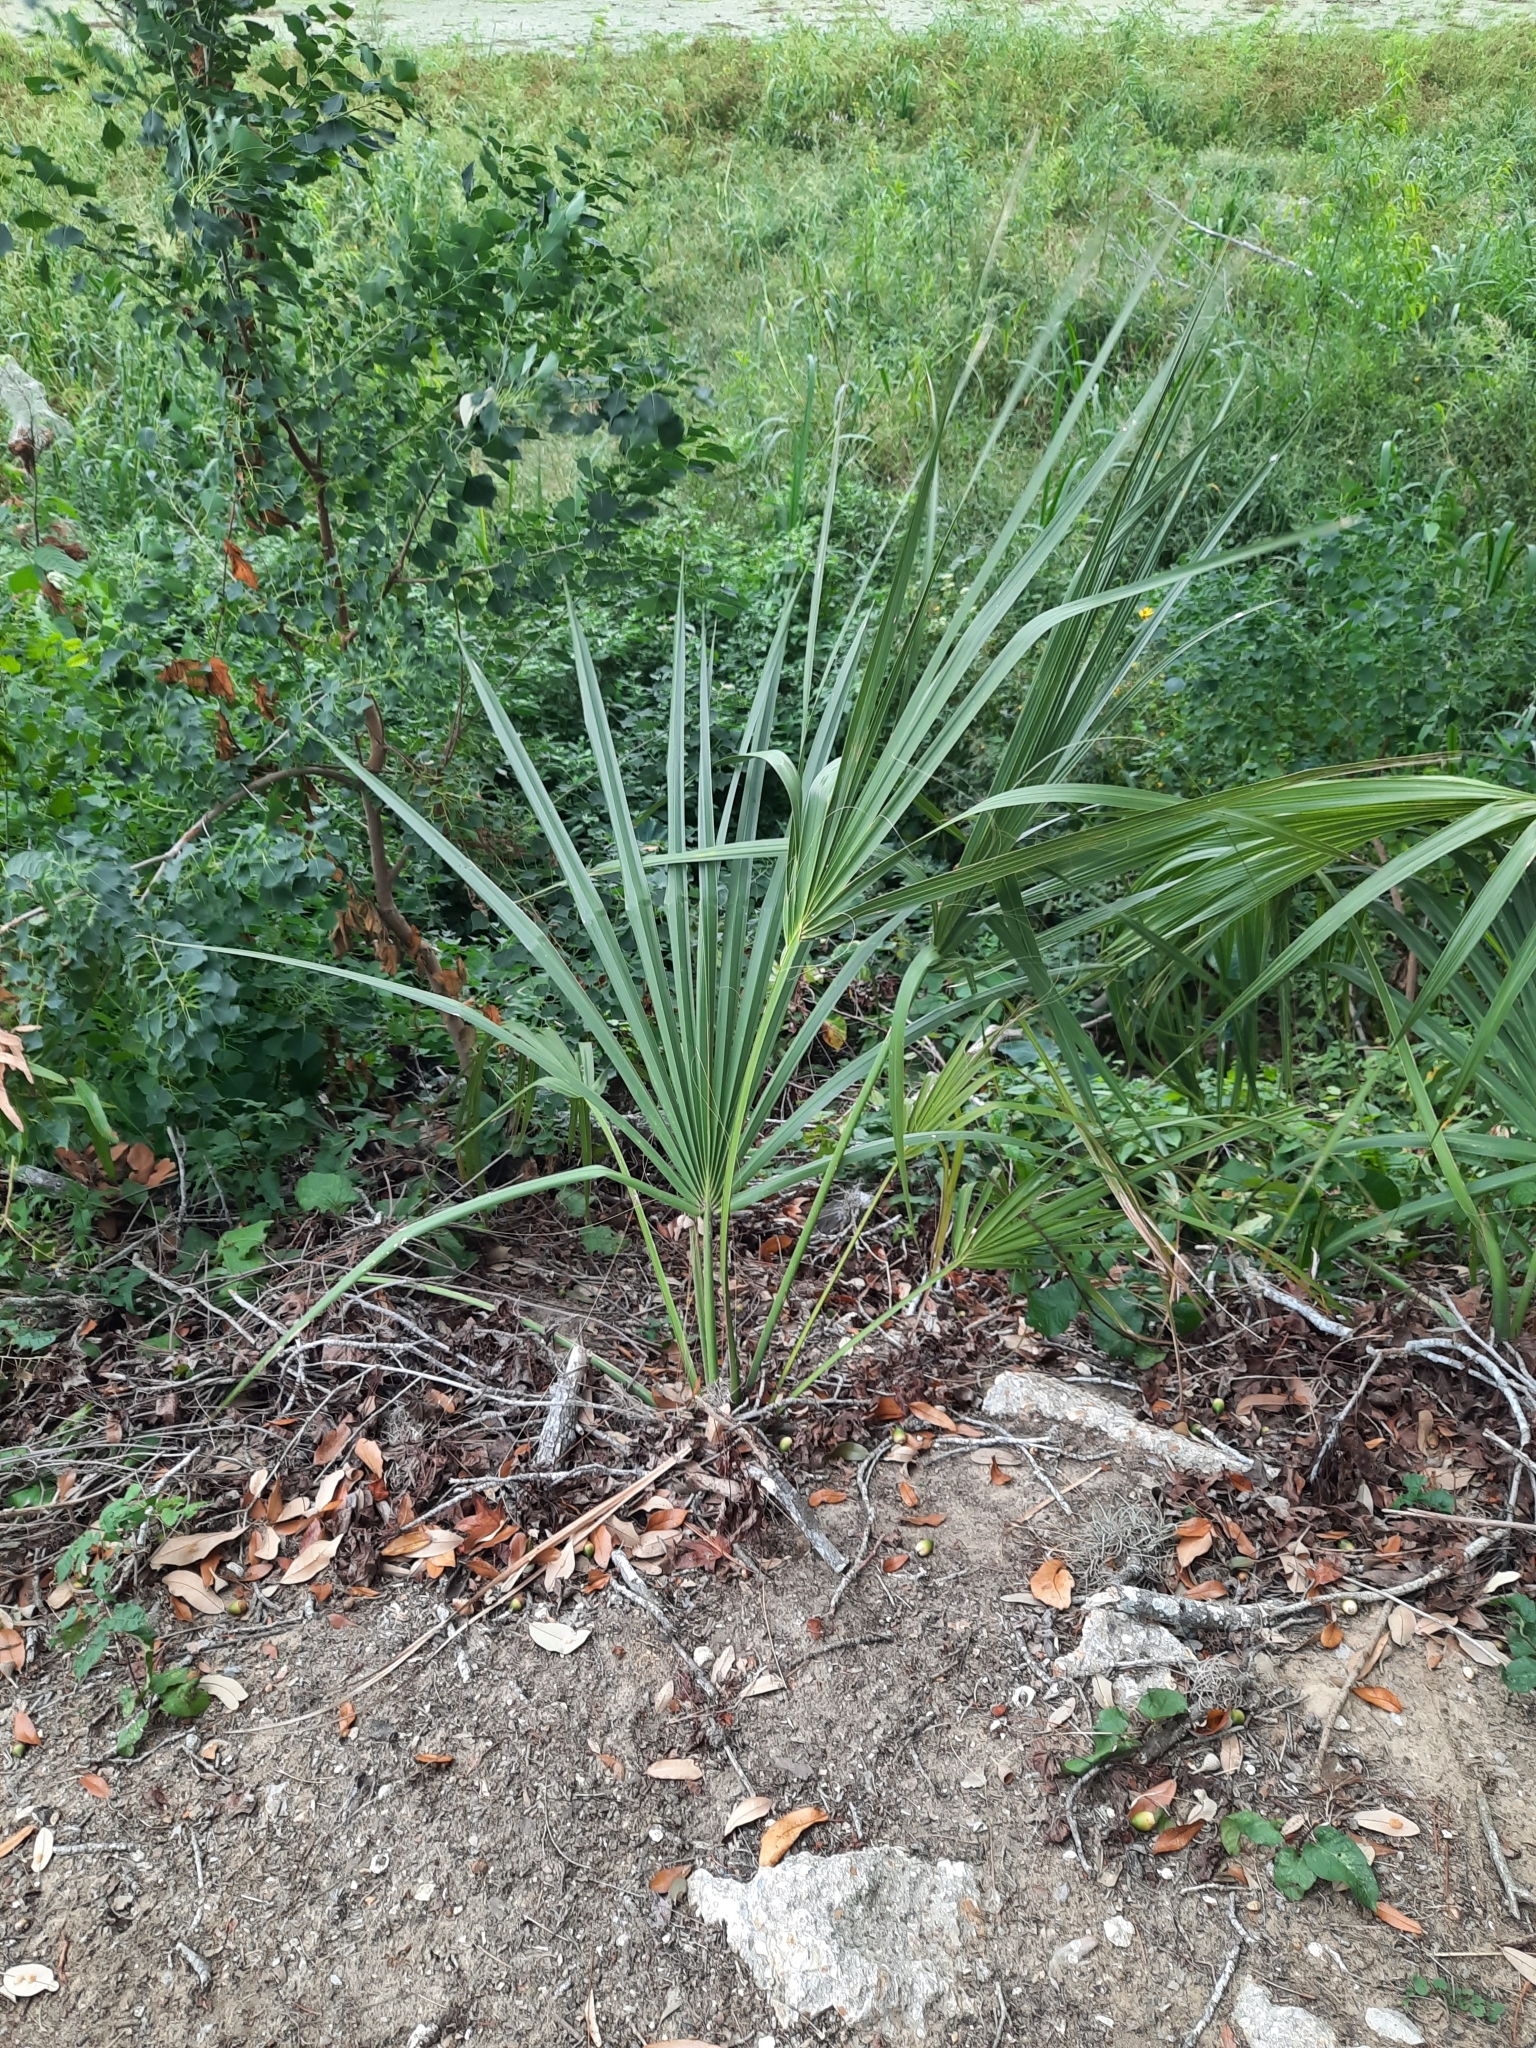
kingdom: Plantae
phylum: Tracheophyta
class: Liliopsida
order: Arecales
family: Arecaceae
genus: Sabal
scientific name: Sabal minor
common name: Dwarf palmetto
